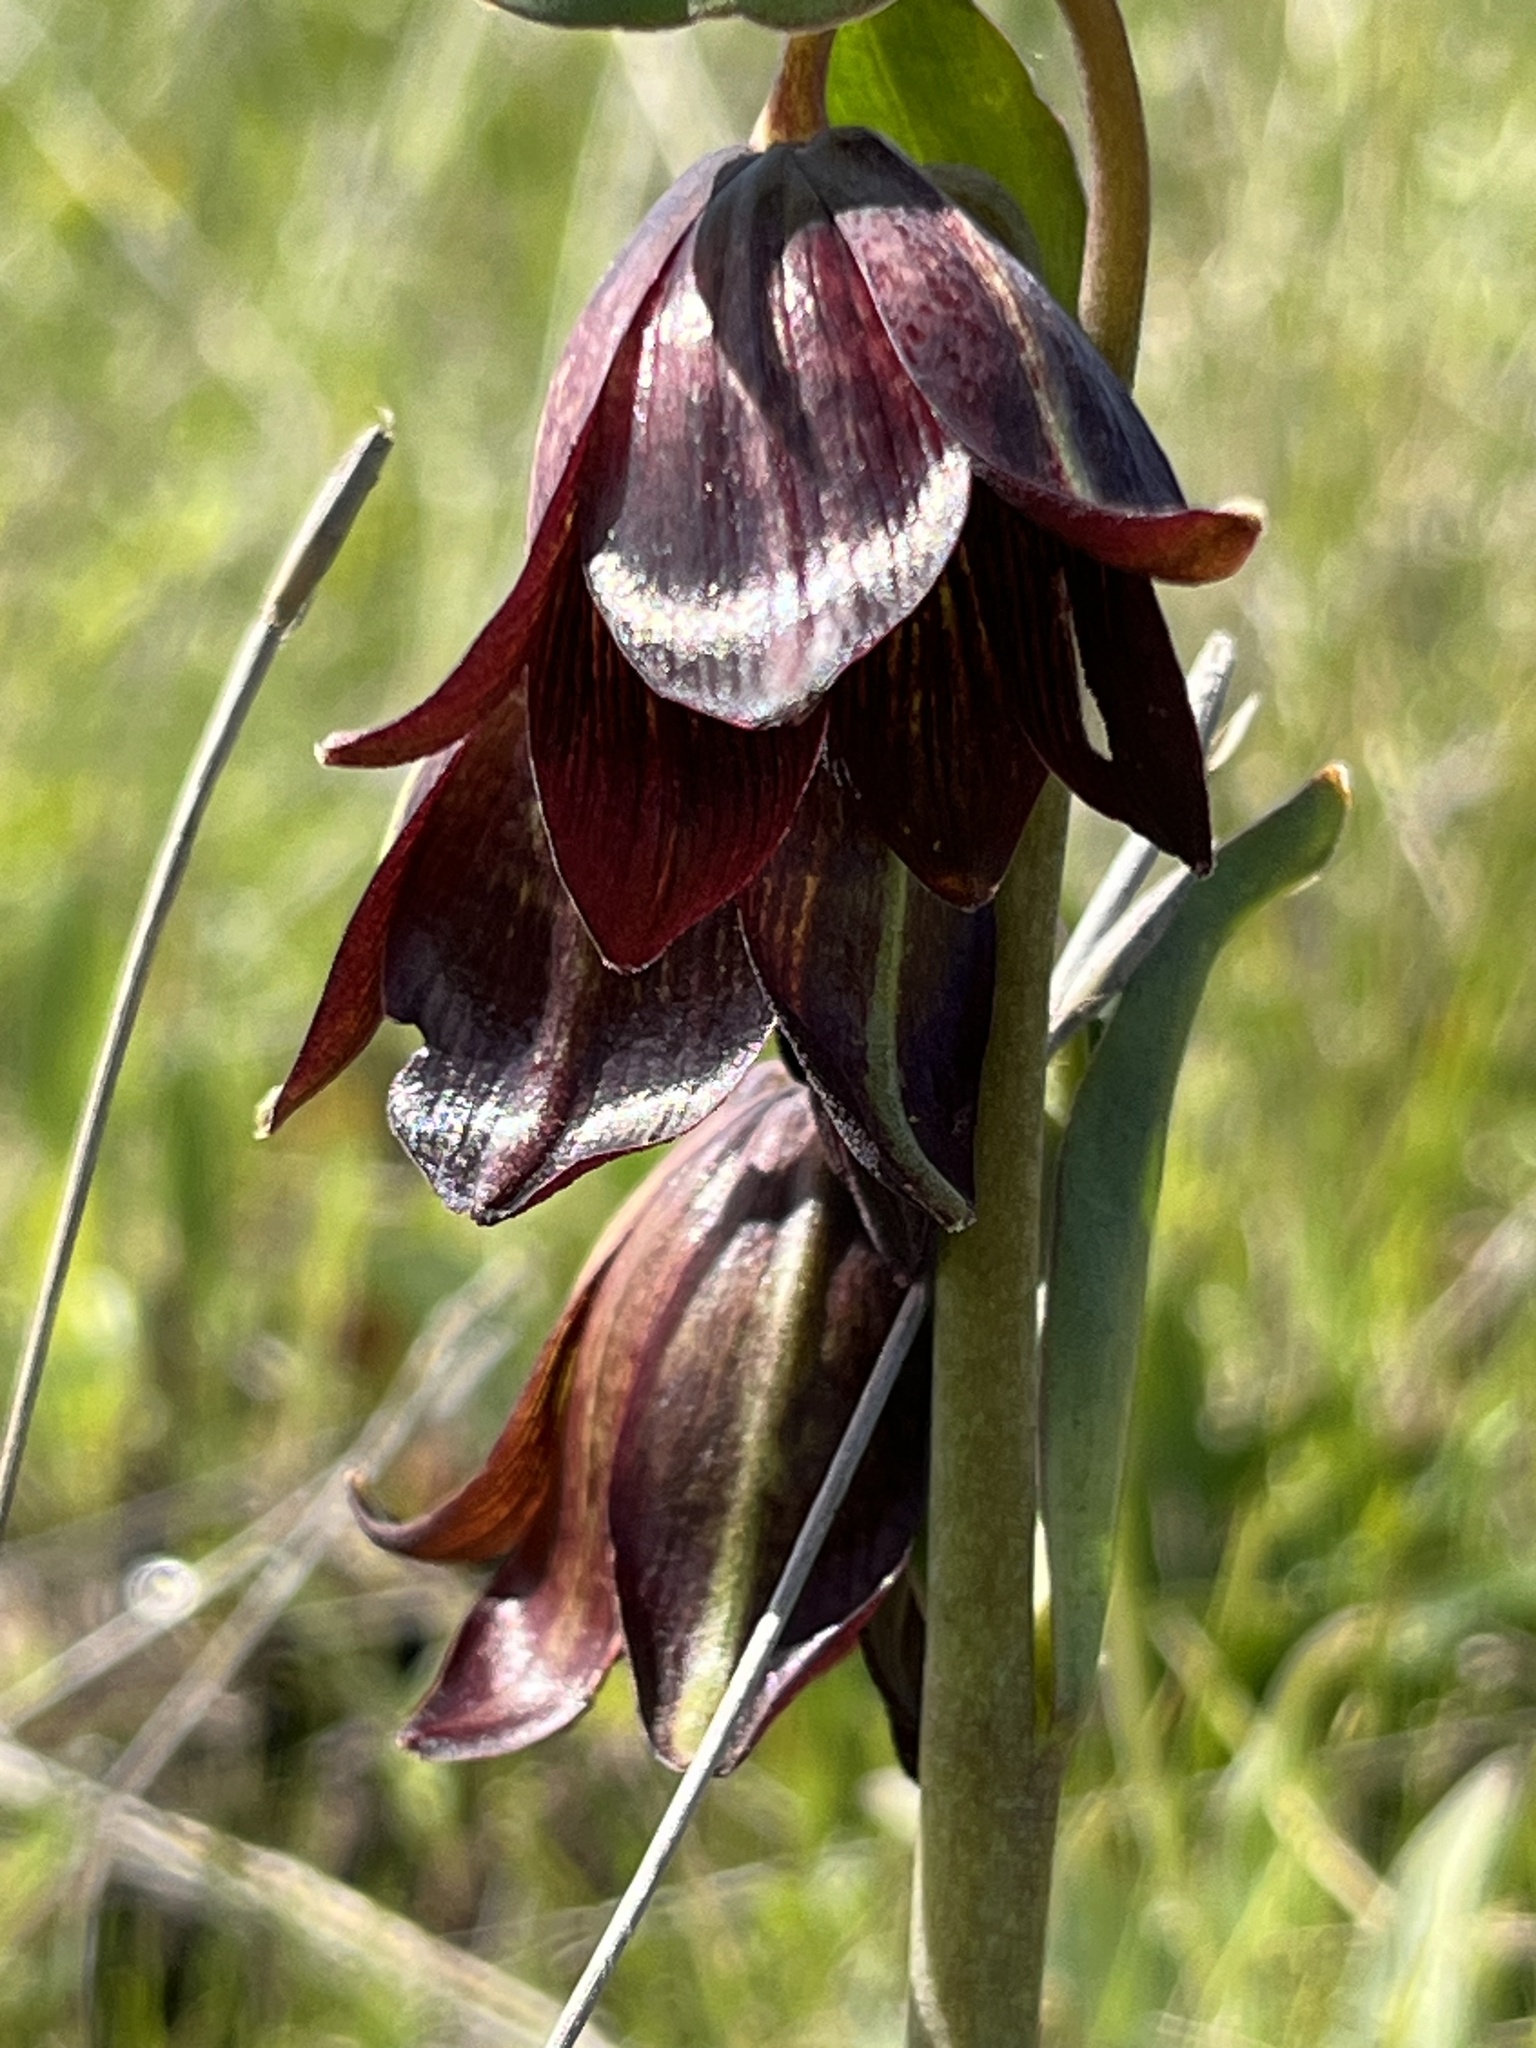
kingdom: Plantae
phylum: Tracheophyta
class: Liliopsida
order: Liliales
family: Liliaceae
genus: Fritillaria
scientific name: Fritillaria biflora
